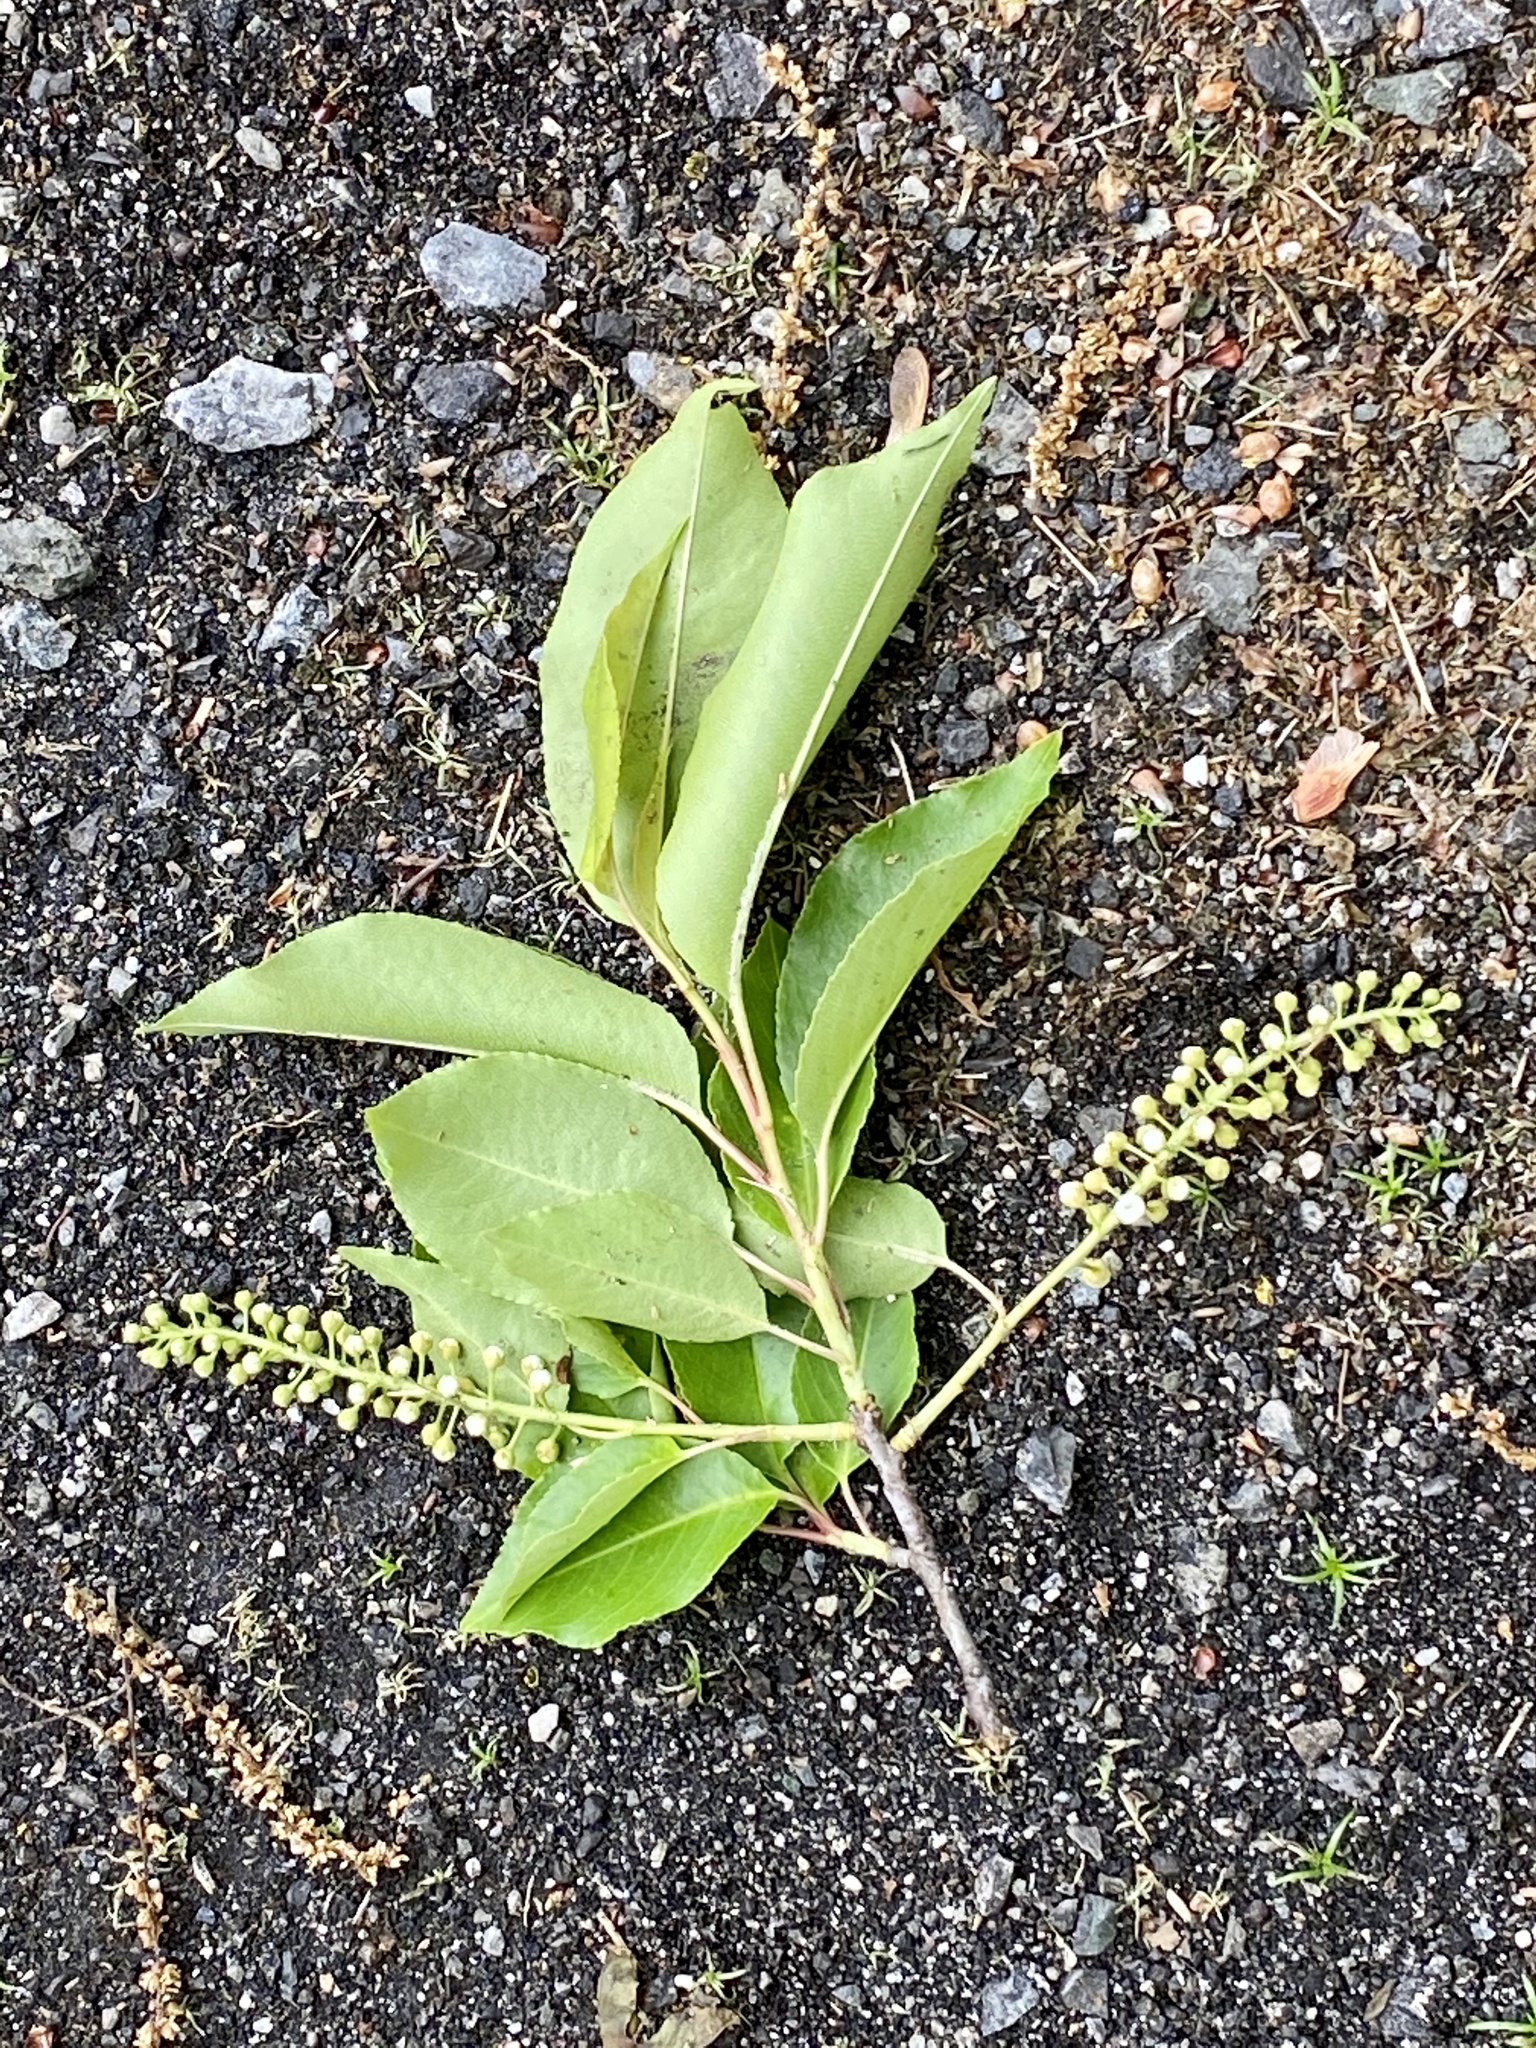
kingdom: Plantae
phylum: Tracheophyta
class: Magnoliopsida
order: Rosales
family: Rosaceae
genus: Prunus
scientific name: Prunus serotina
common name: Black cherry
